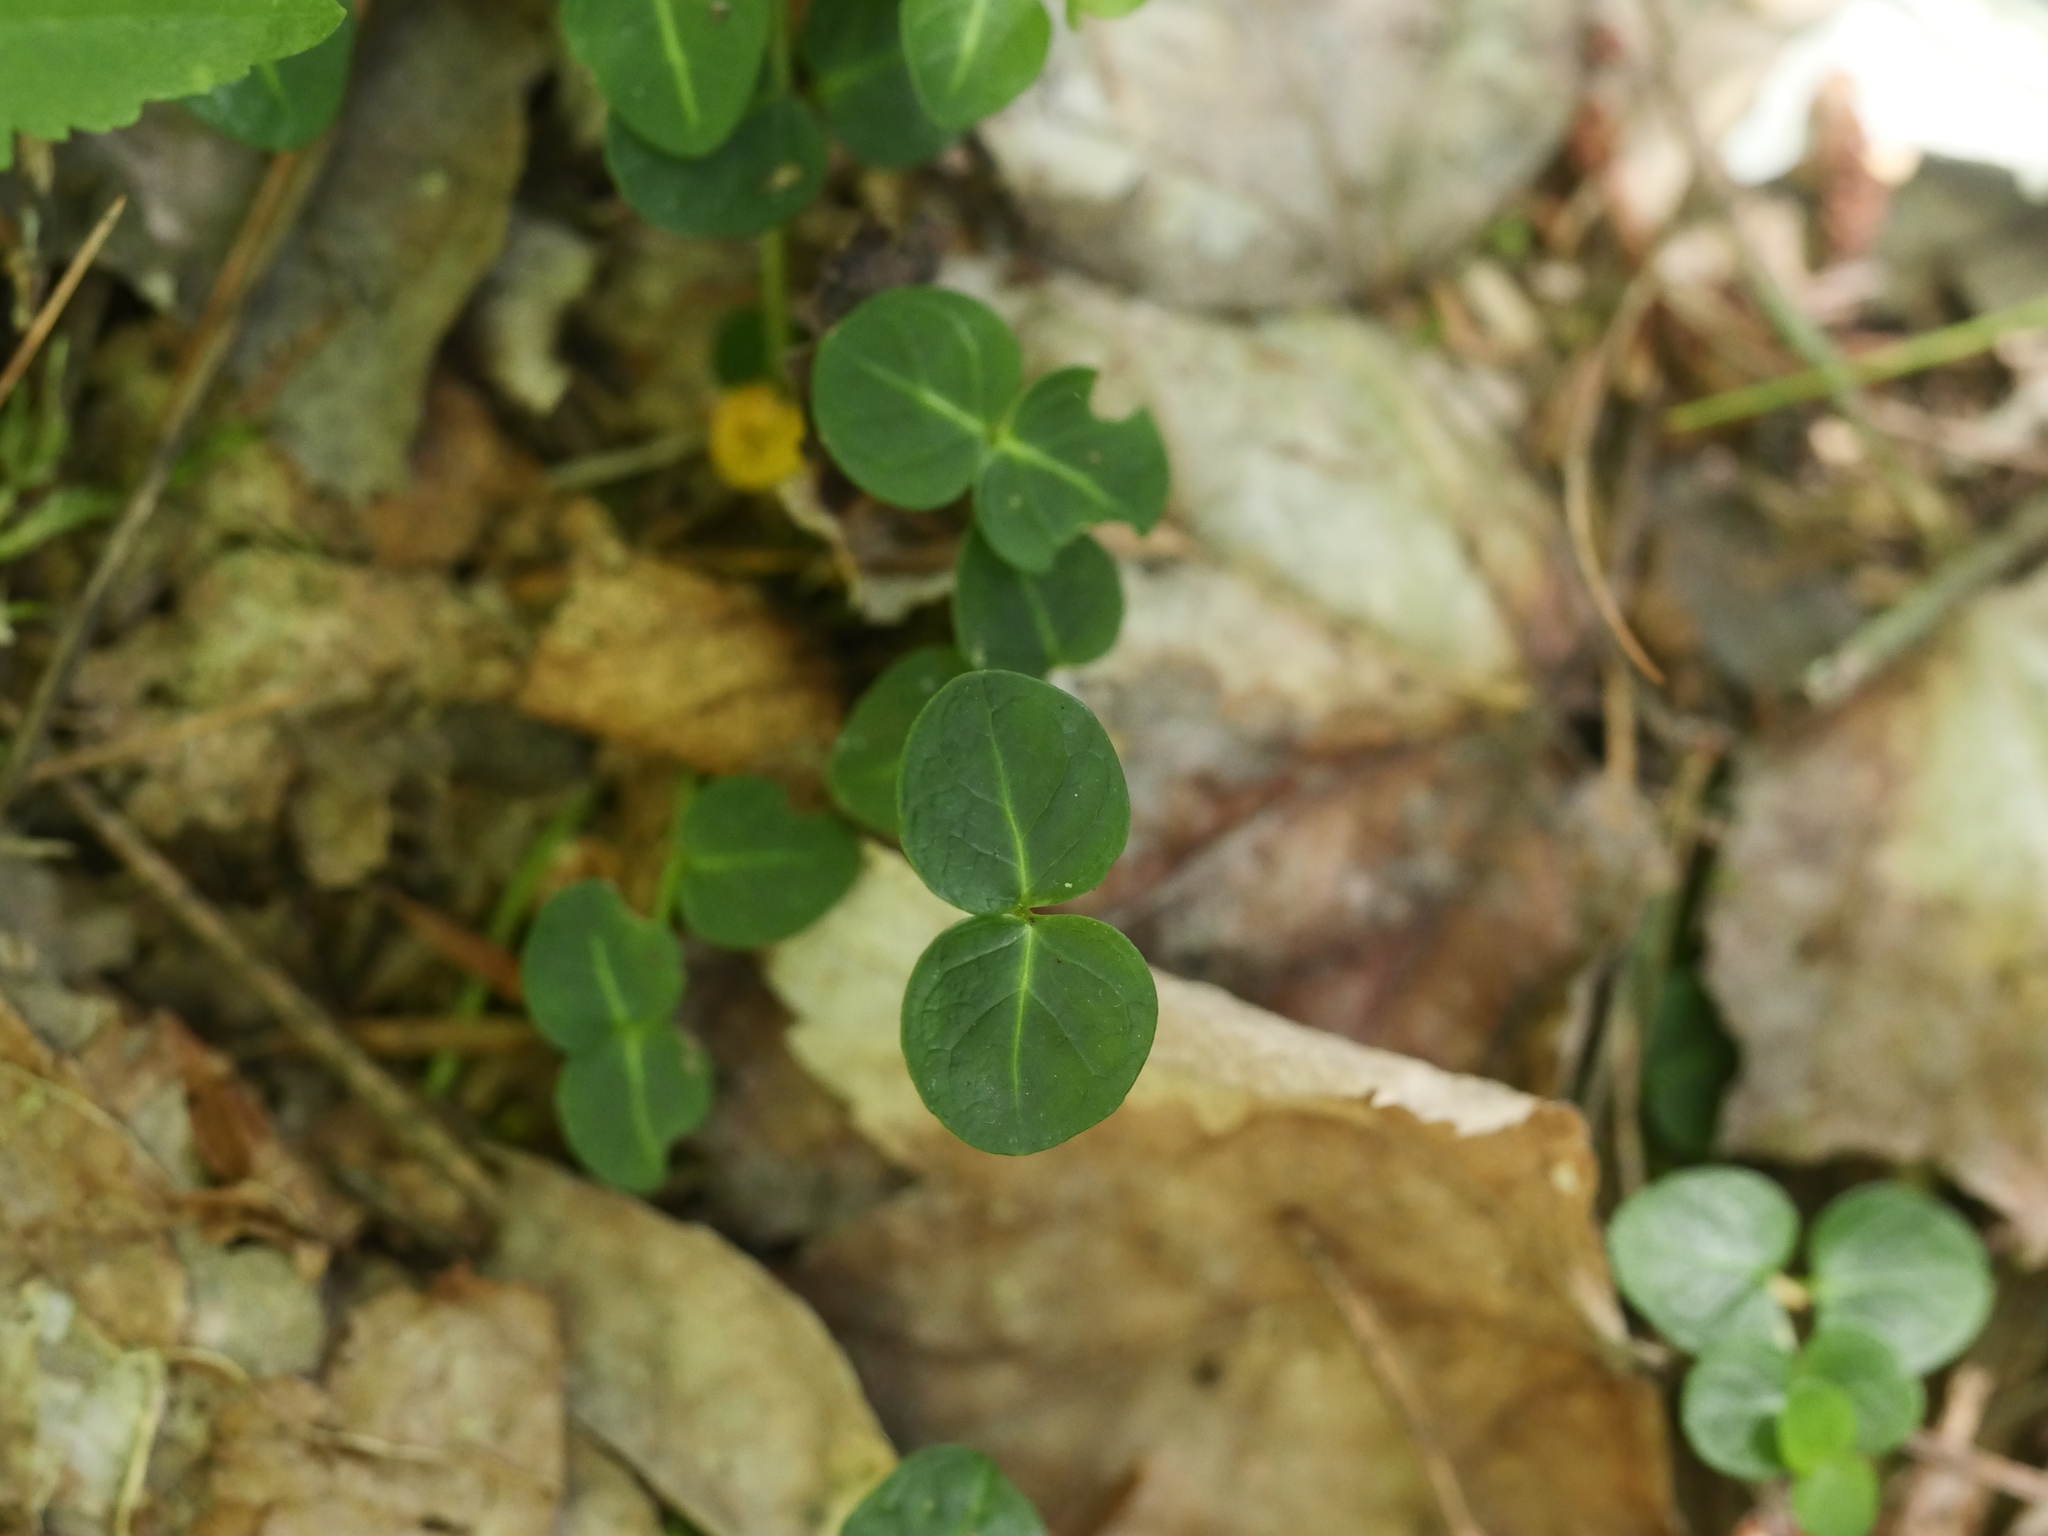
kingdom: Plantae
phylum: Tracheophyta
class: Magnoliopsida
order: Gentianales
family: Rubiaceae
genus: Mitchella
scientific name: Mitchella repens
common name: Partridge-berry
